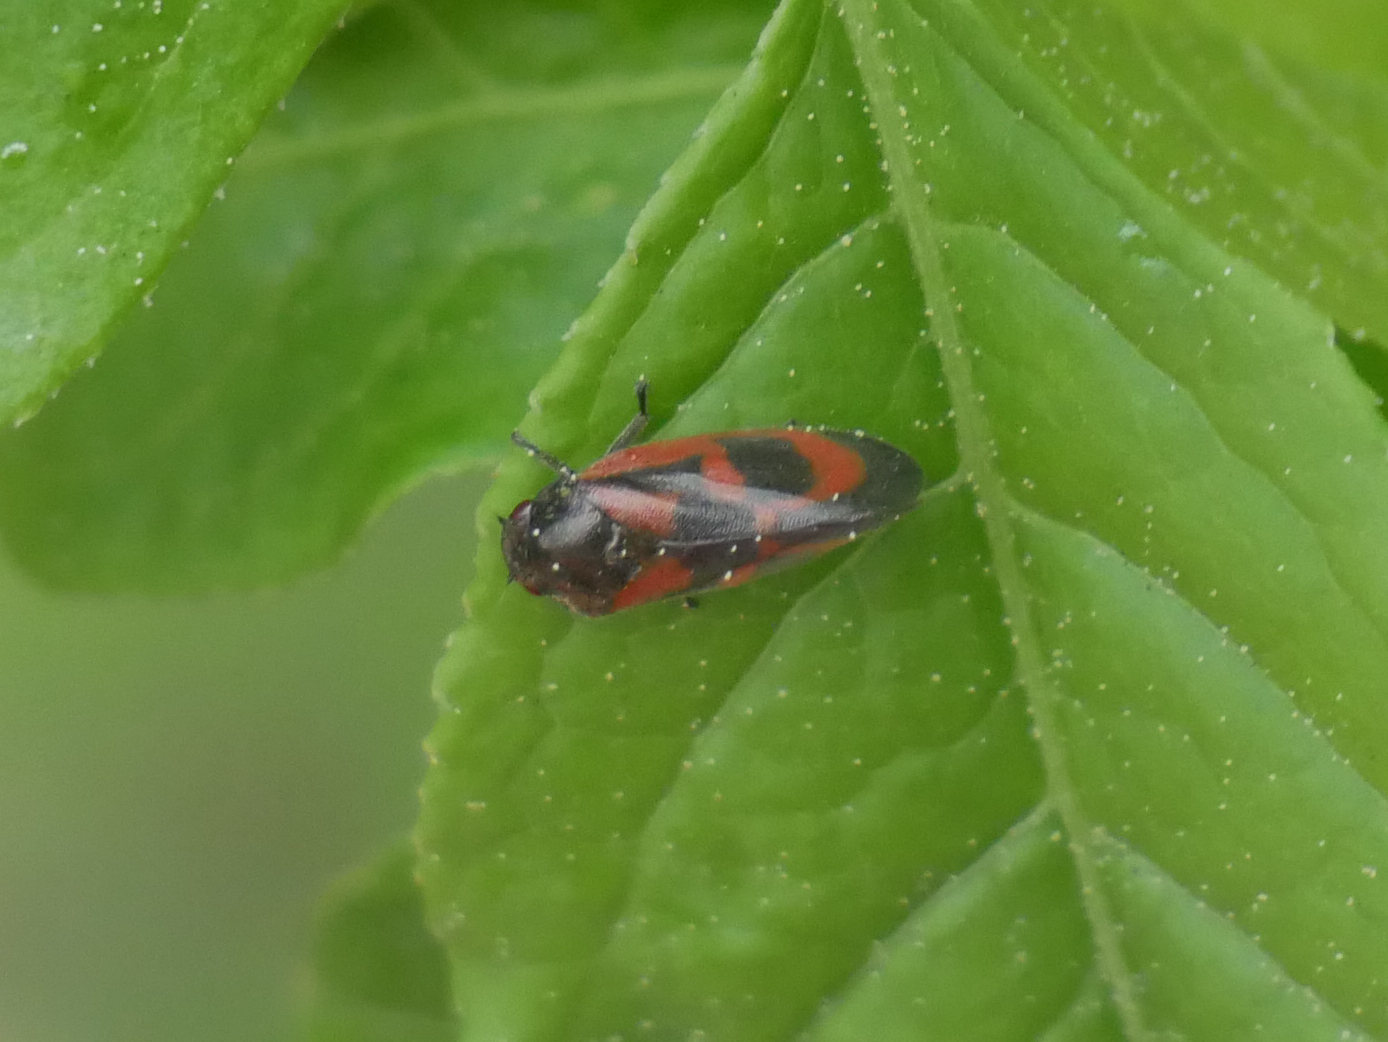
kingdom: Animalia
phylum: Arthropoda
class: Insecta
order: Hemiptera
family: Cercopidae
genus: Haematoloma
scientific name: Haematoloma dorsata
